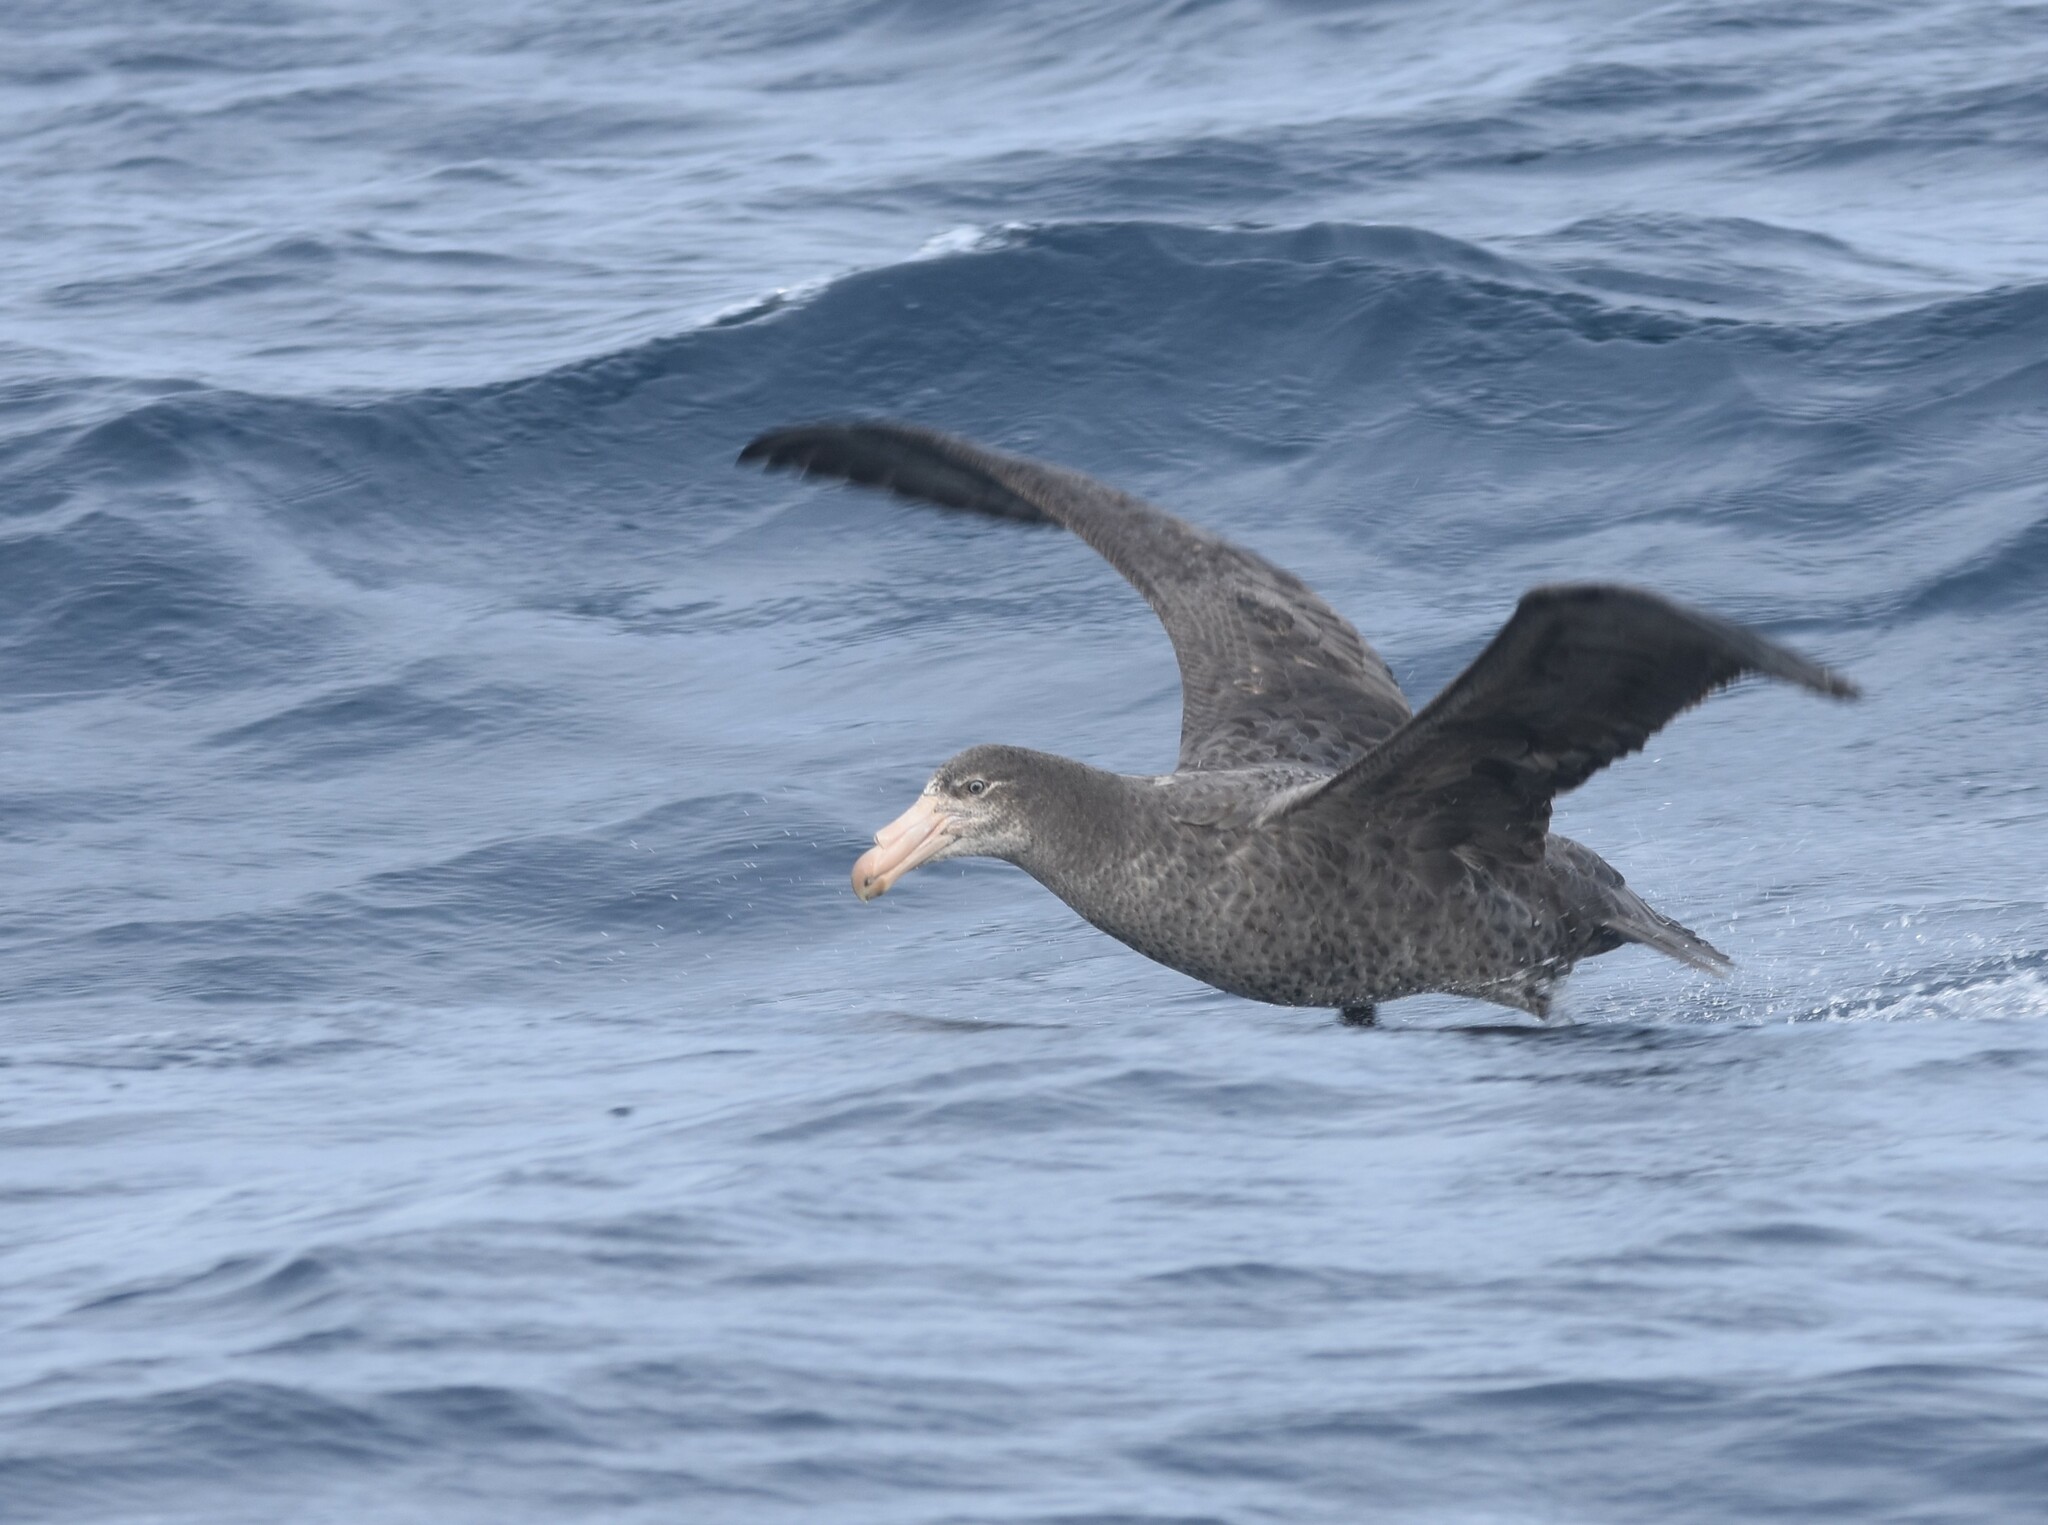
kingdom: Animalia
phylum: Chordata
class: Aves
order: Procellariiformes
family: Procellariidae
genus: Macronectes
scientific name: Macronectes halli
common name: Northern giant petrel
